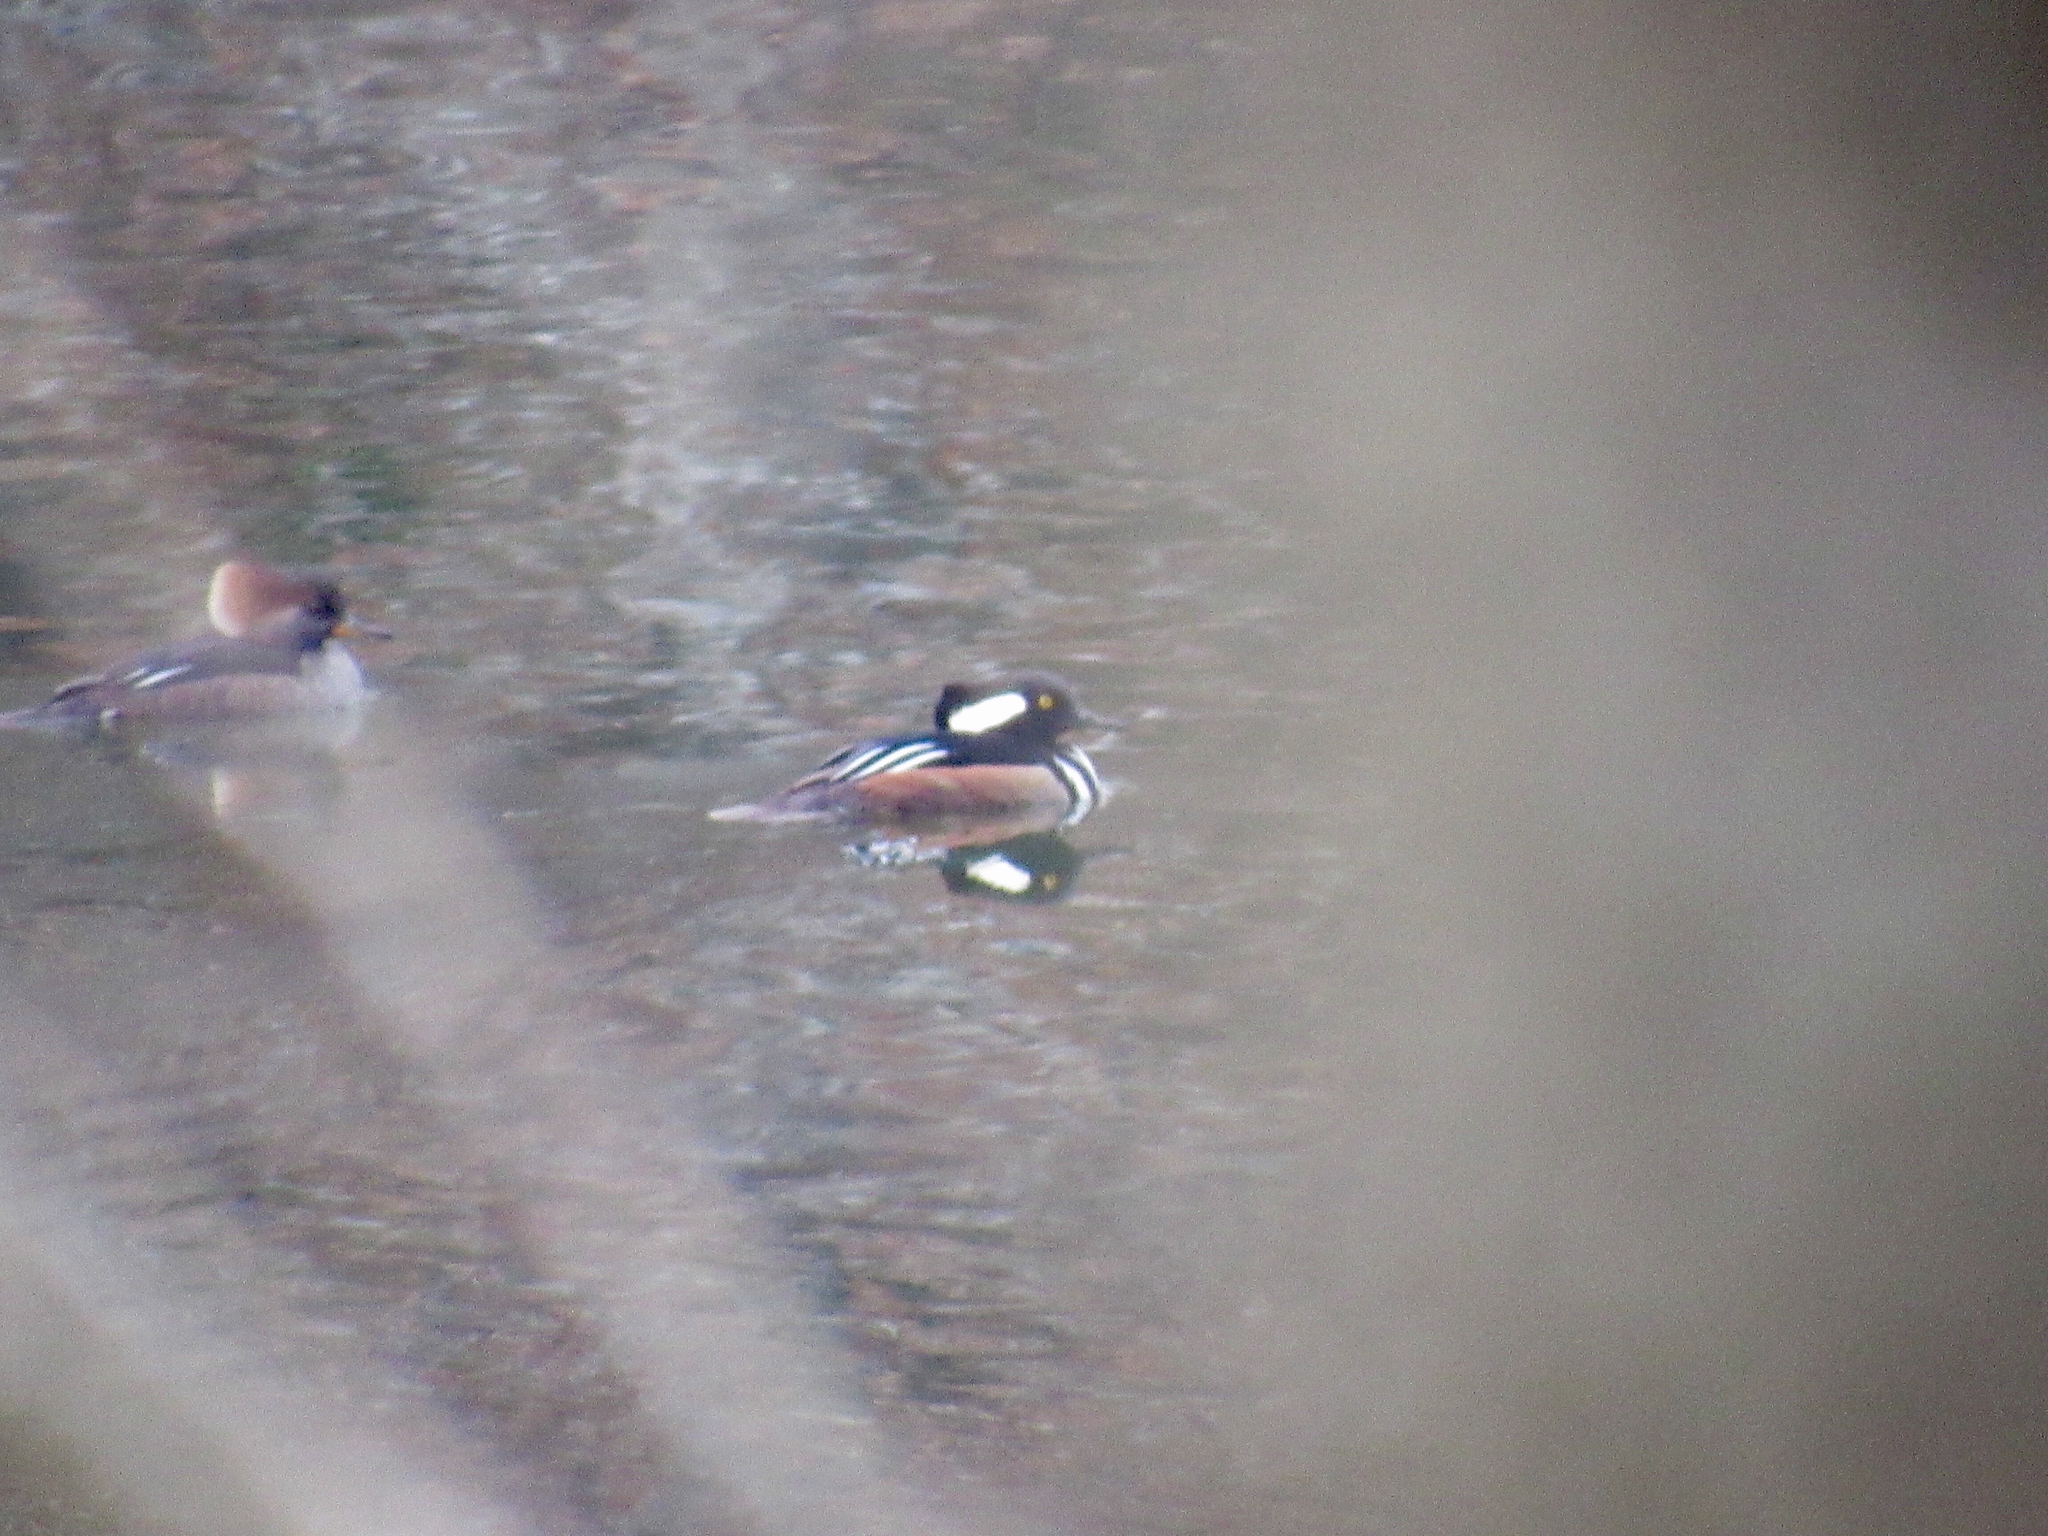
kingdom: Animalia
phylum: Chordata
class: Aves
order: Anseriformes
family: Anatidae
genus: Lophodytes
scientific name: Lophodytes cucullatus
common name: Hooded merganser
